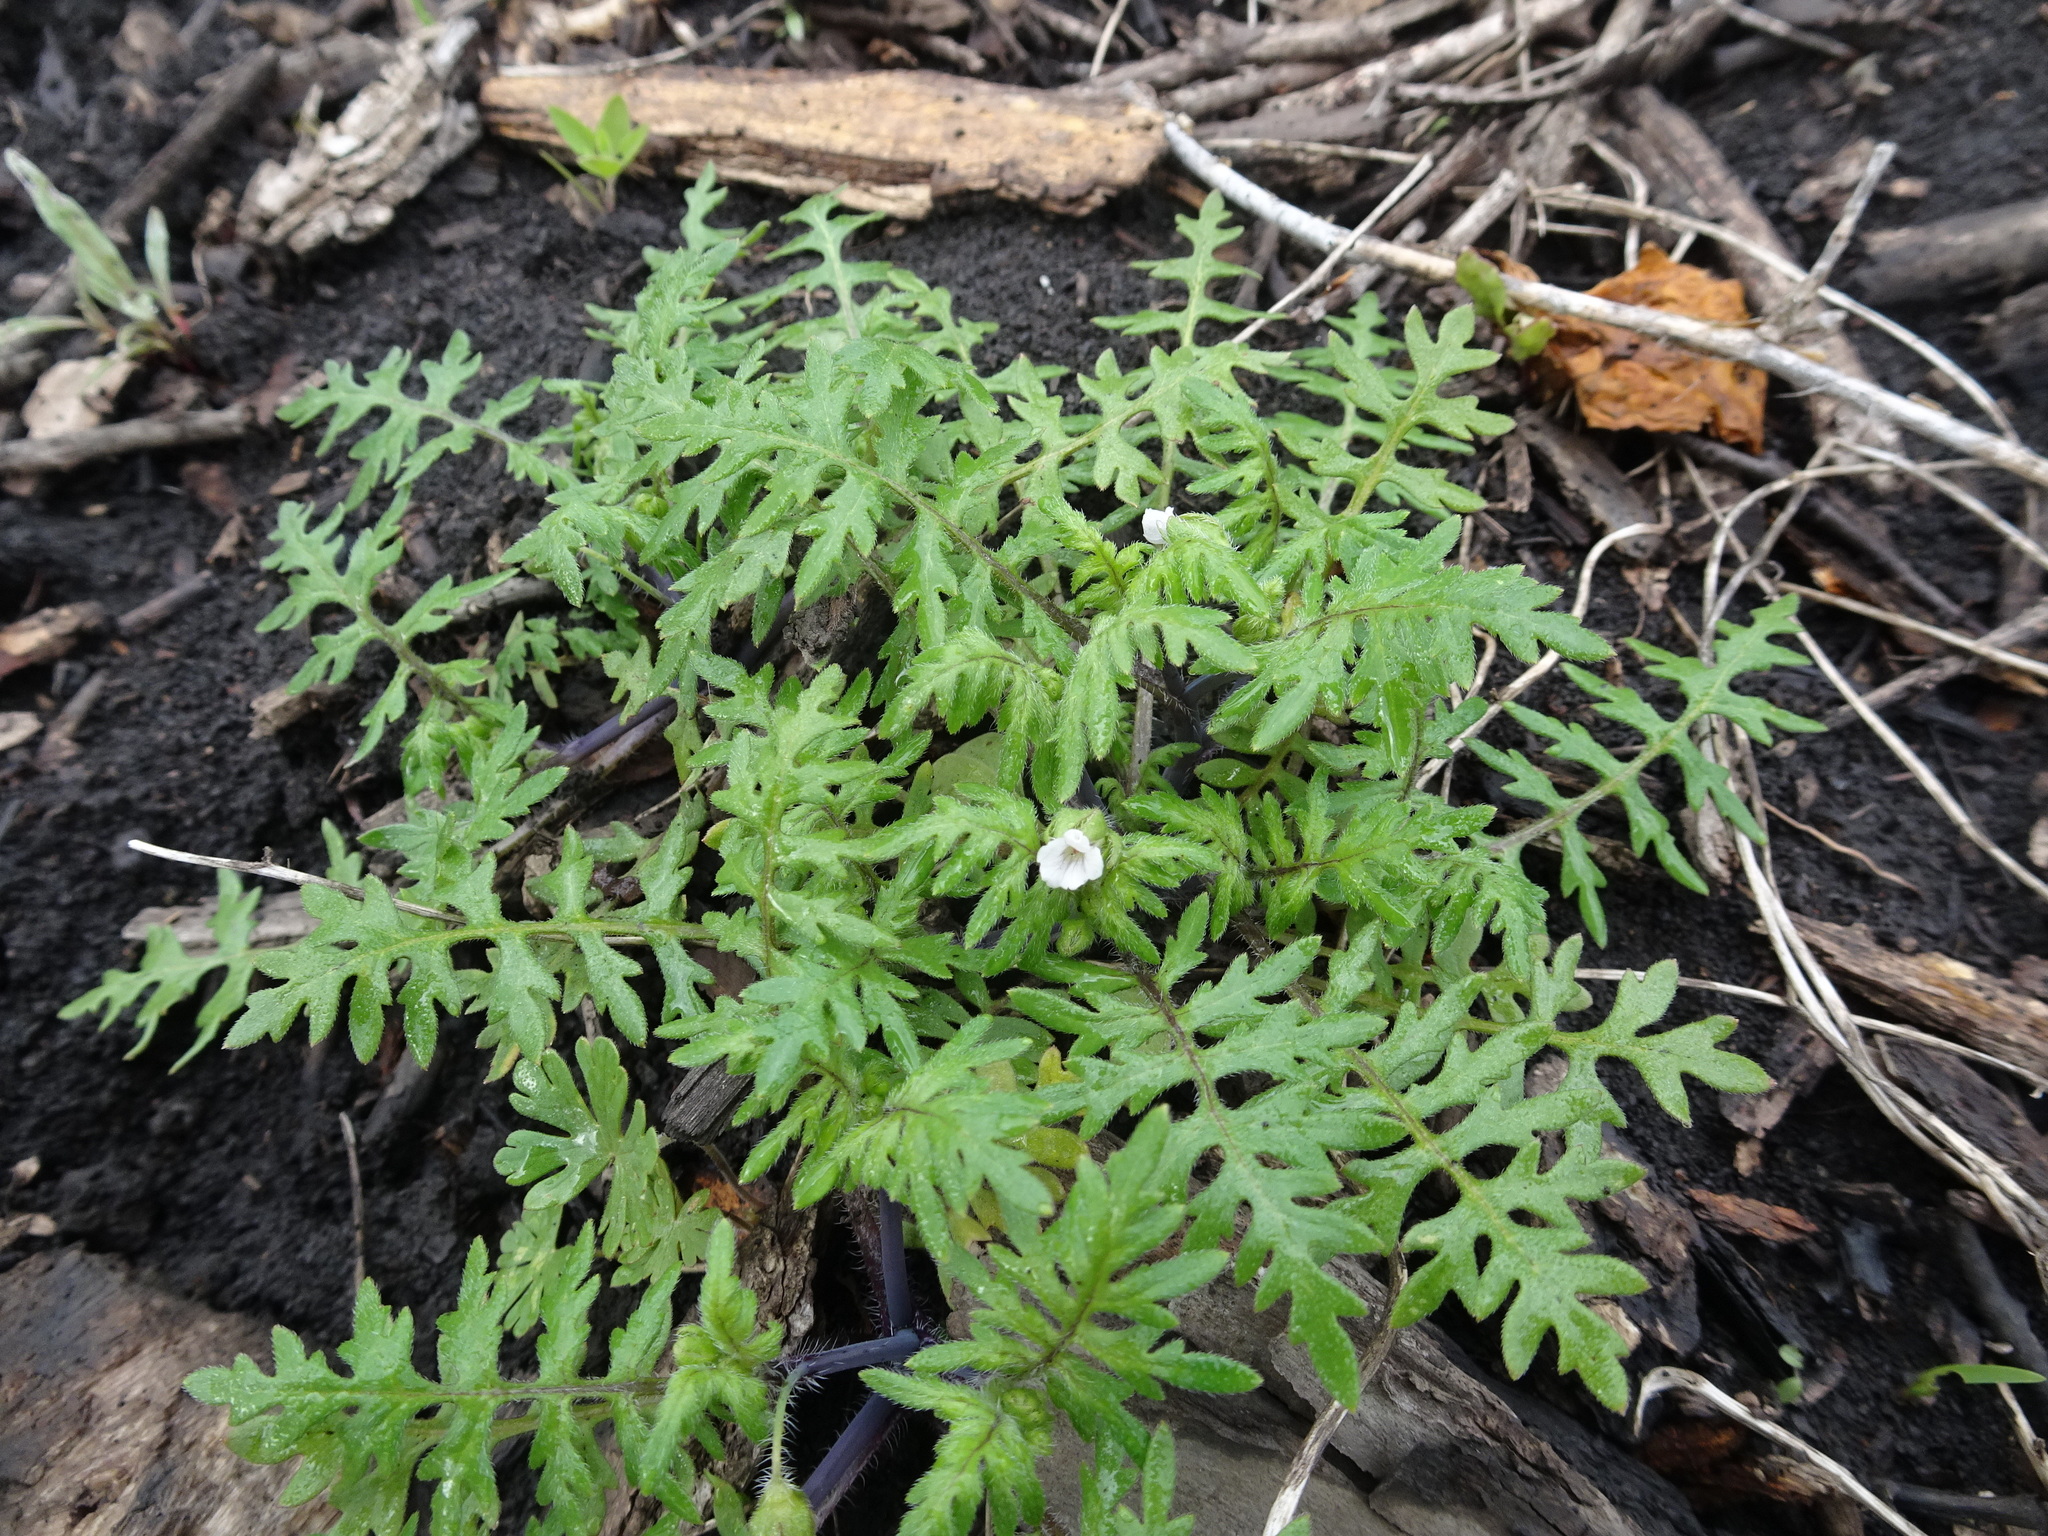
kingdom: Plantae
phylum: Tracheophyta
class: Magnoliopsida
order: Boraginales
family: Hydrophyllaceae
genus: Ellisia
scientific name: Ellisia nyctelea
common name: Aunt lucy
